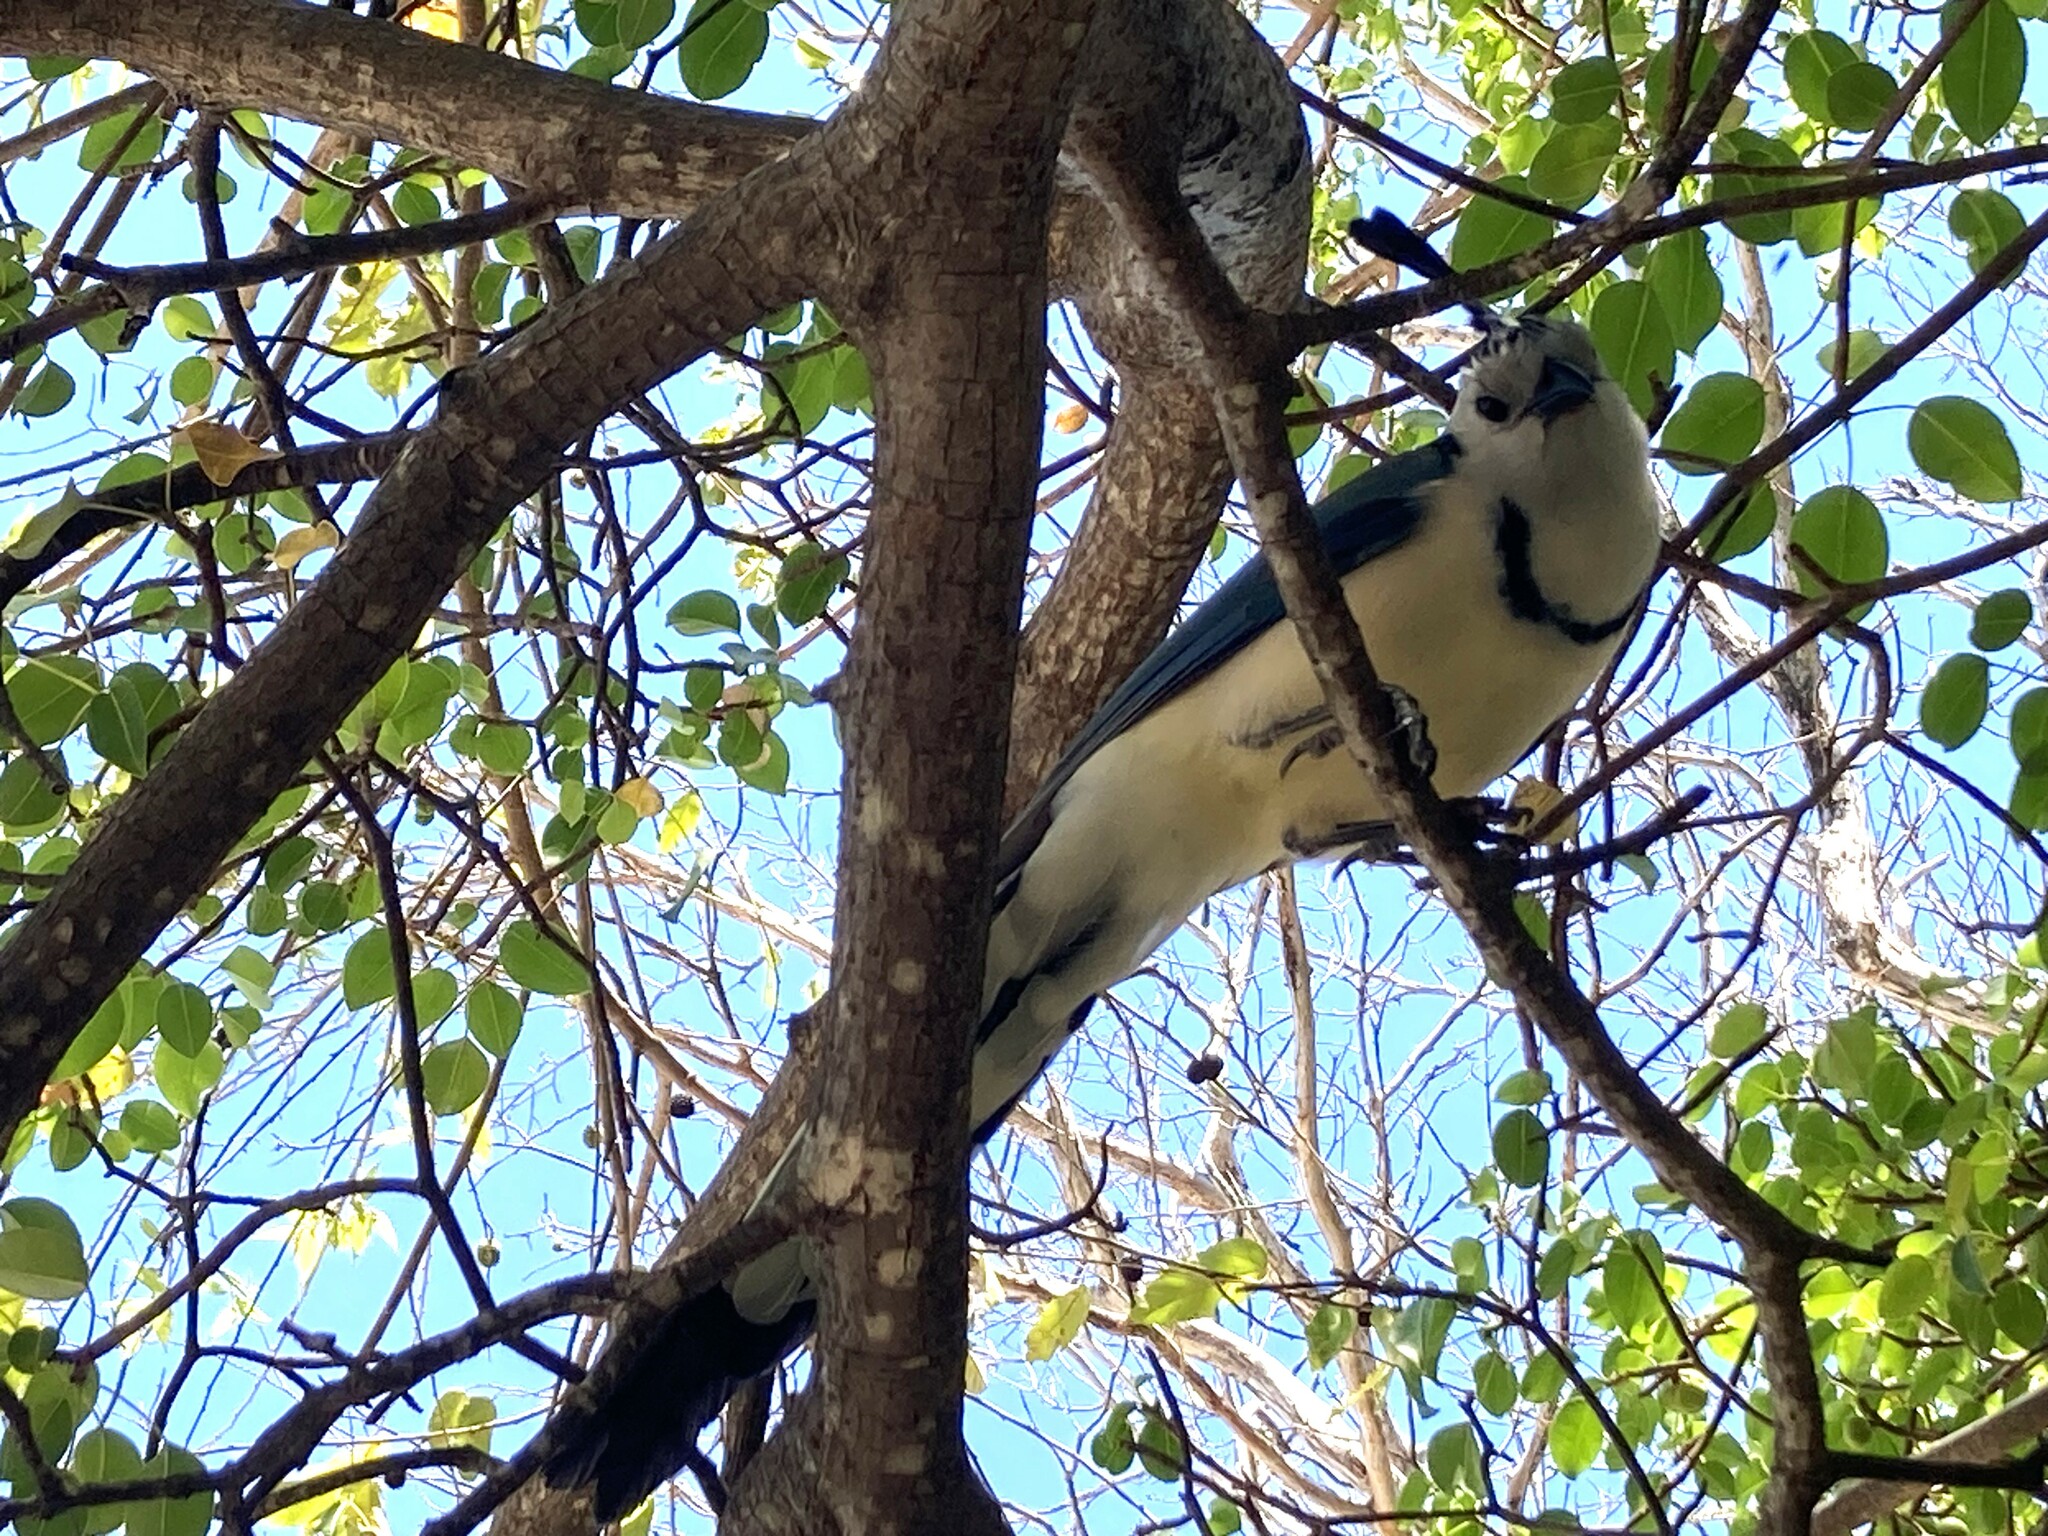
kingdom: Animalia
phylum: Chordata
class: Aves
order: Passeriformes
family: Corvidae
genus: Calocitta
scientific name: Calocitta formosa
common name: White-throated magpie-jay
